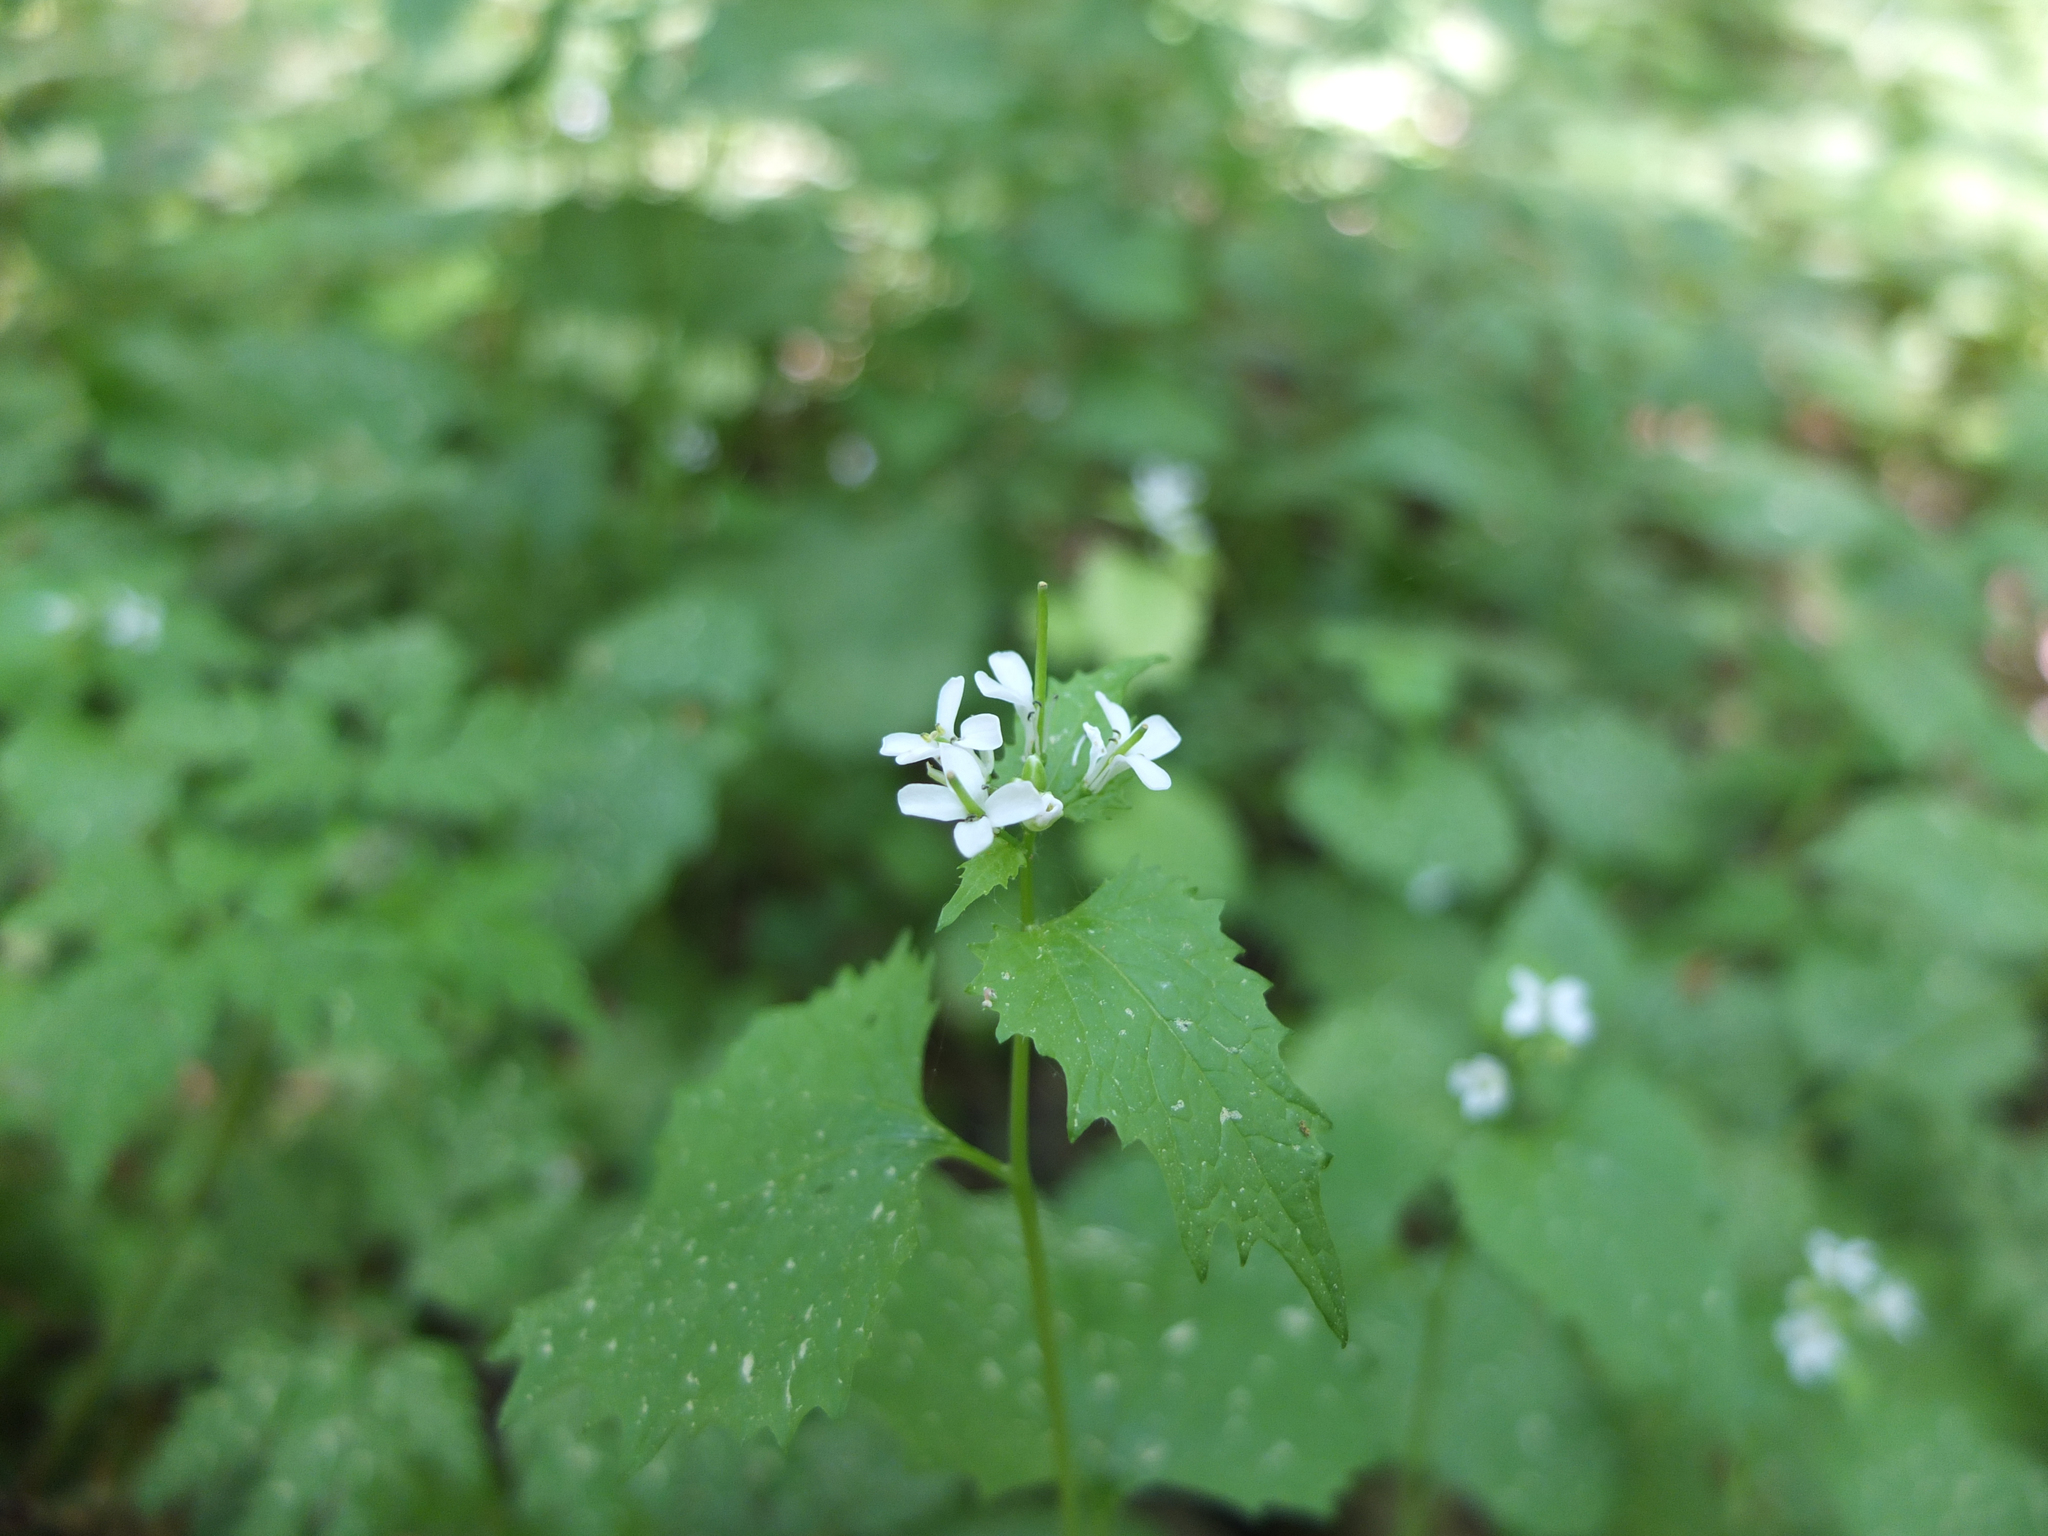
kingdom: Plantae
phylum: Tracheophyta
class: Magnoliopsida
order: Brassicales
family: Brassicaceae
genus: Alliaria
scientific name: Alliaria petiolata
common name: Garlic mustard
